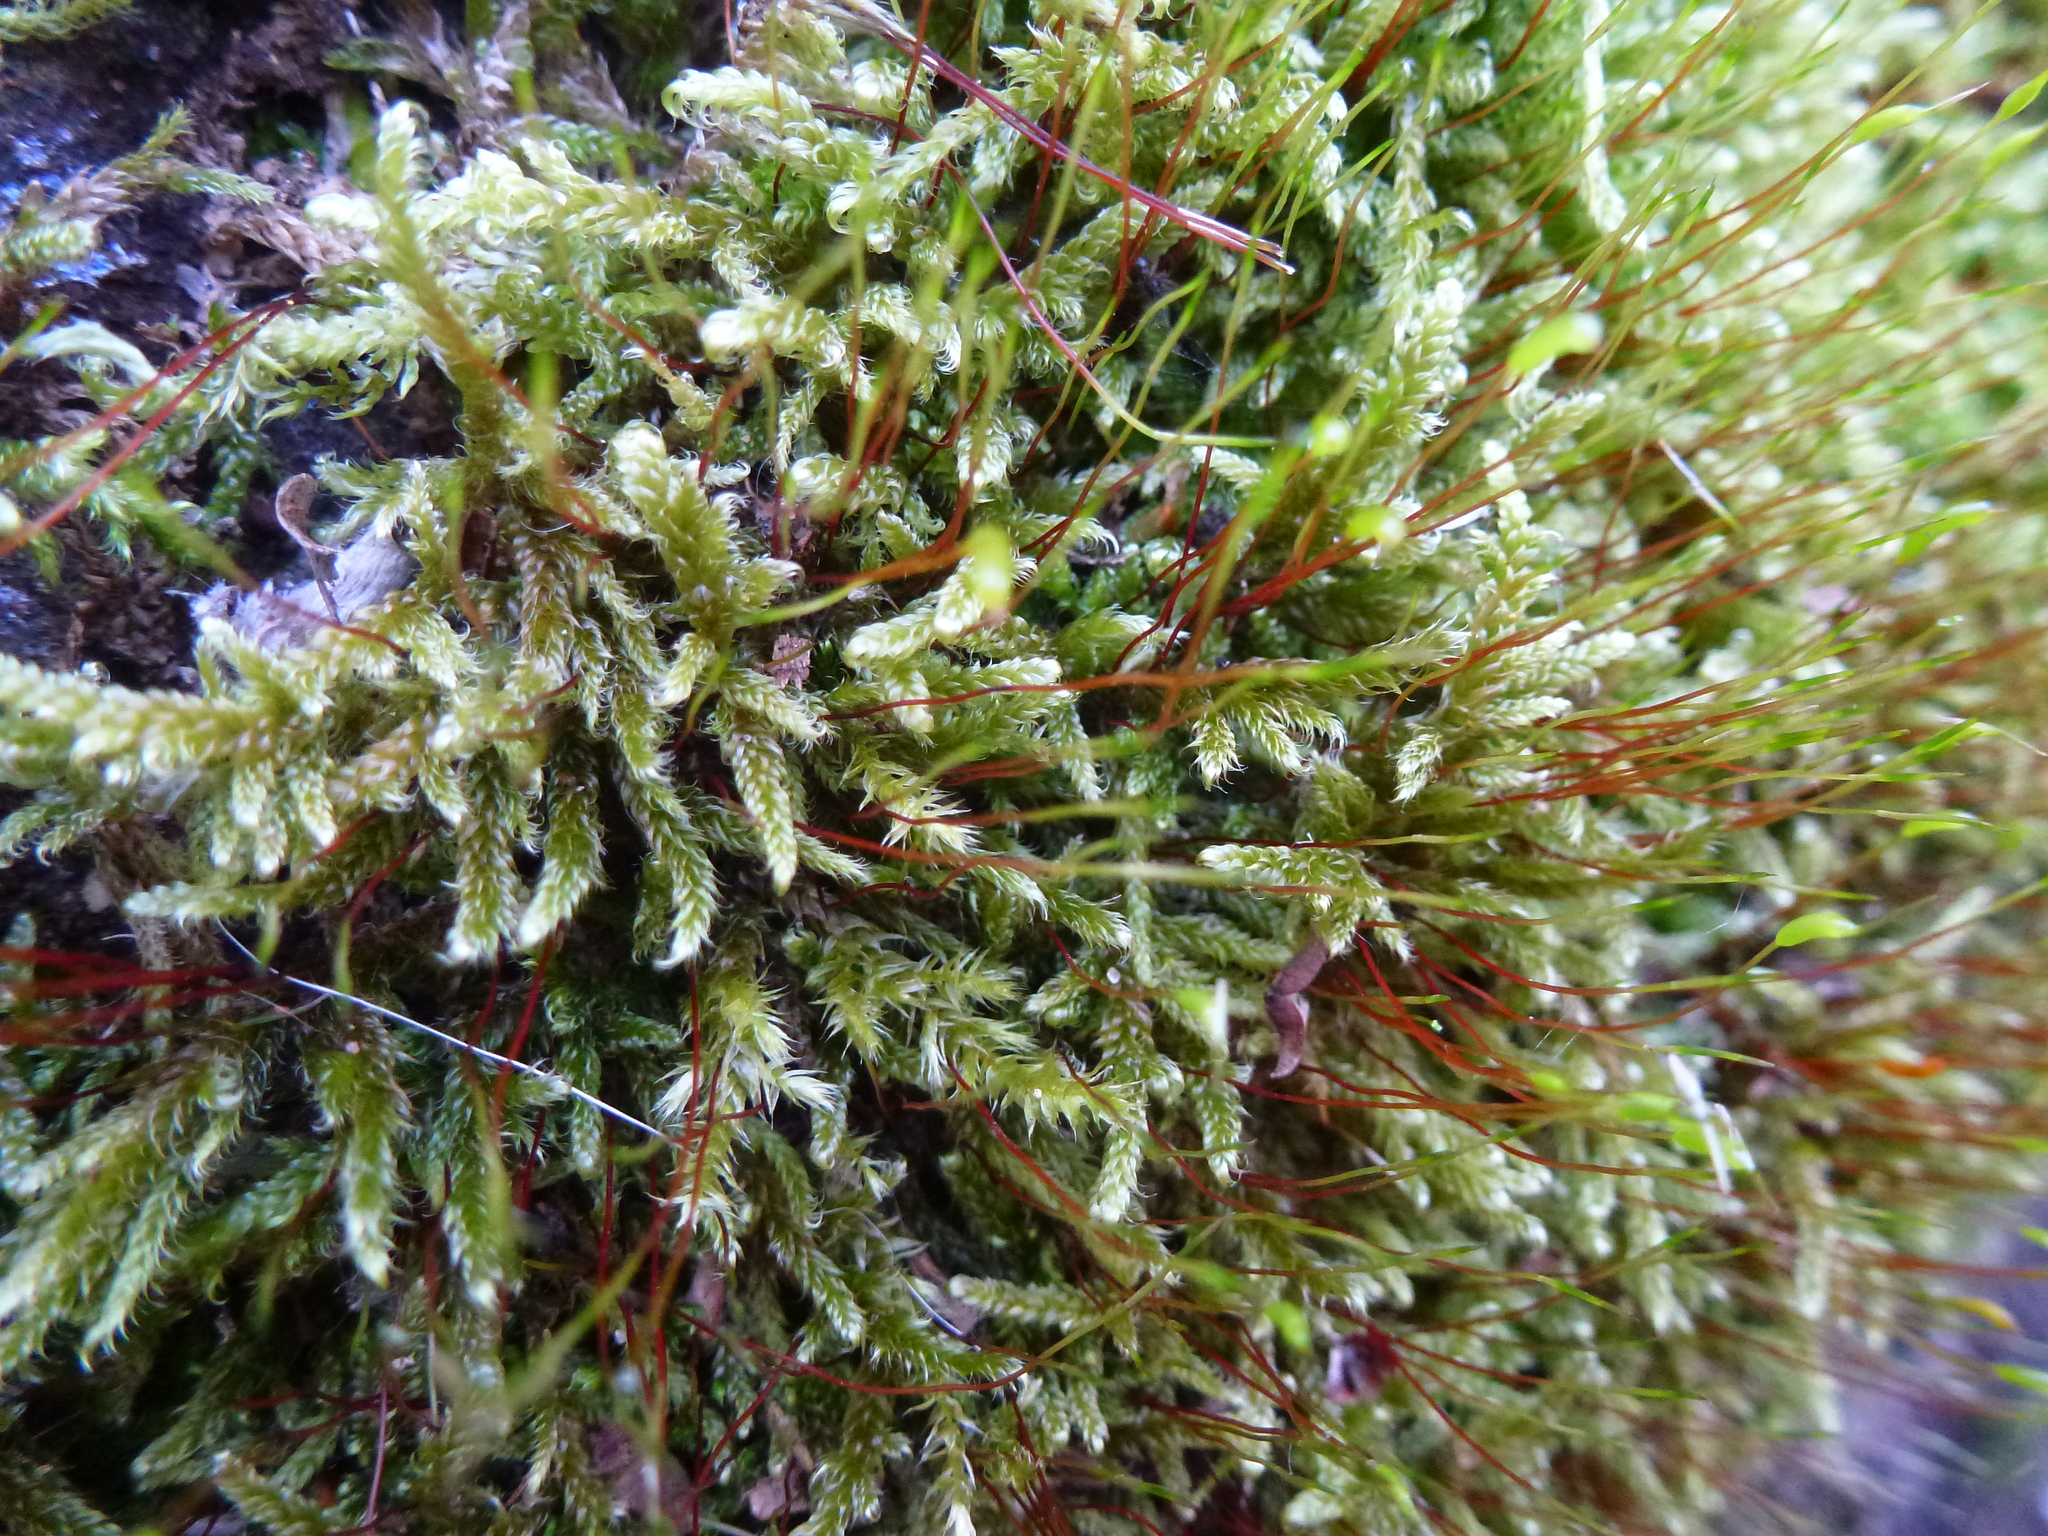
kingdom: Plantae
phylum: Bryophyta
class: Bryopsida
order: Hypnales
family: Hypnaceae
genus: Hypnum
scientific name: Hypnum cupressiforme
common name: Cypress-leaved plait-moss
